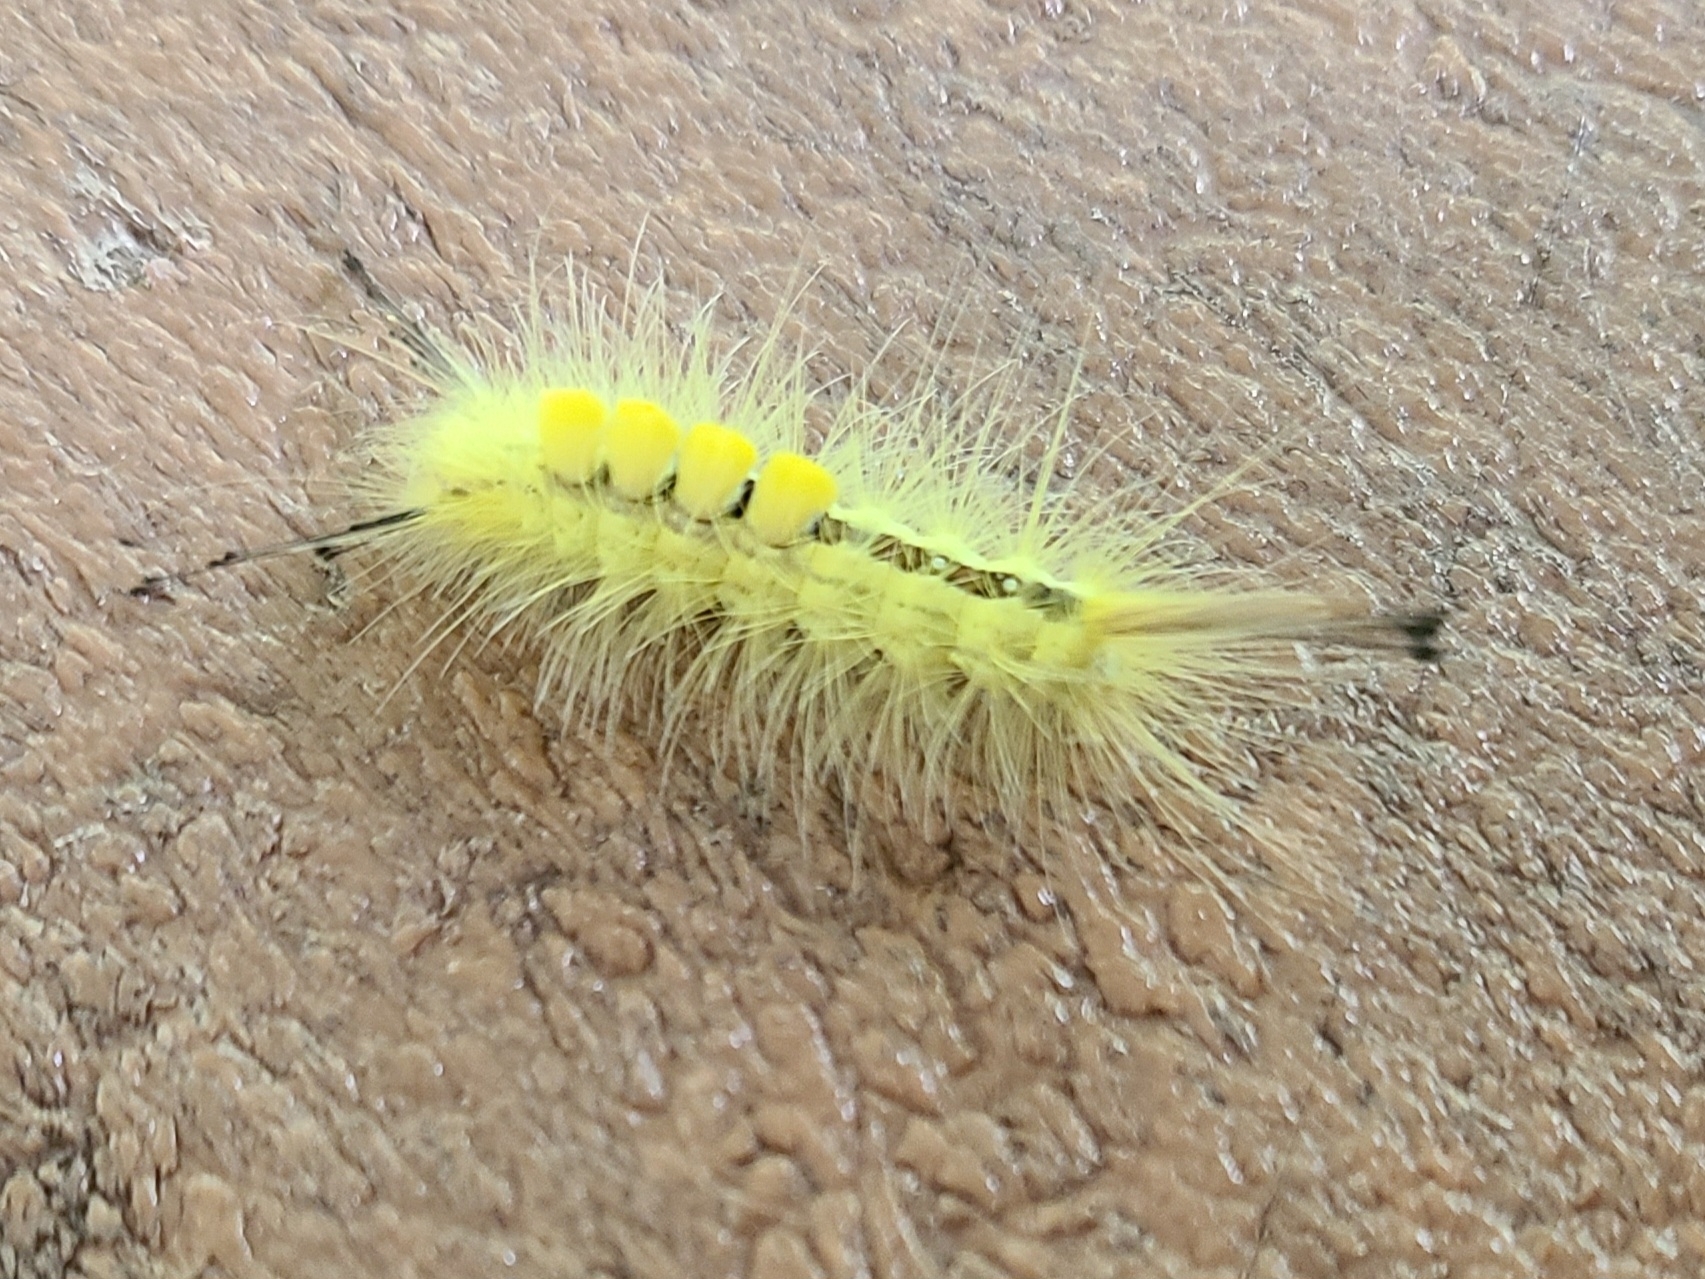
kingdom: Animalia
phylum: Arthropoda
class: Insecta
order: Lepidoptera
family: Erebidae
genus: Orgyia
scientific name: Orgyia definita
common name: Definite tussock moth
